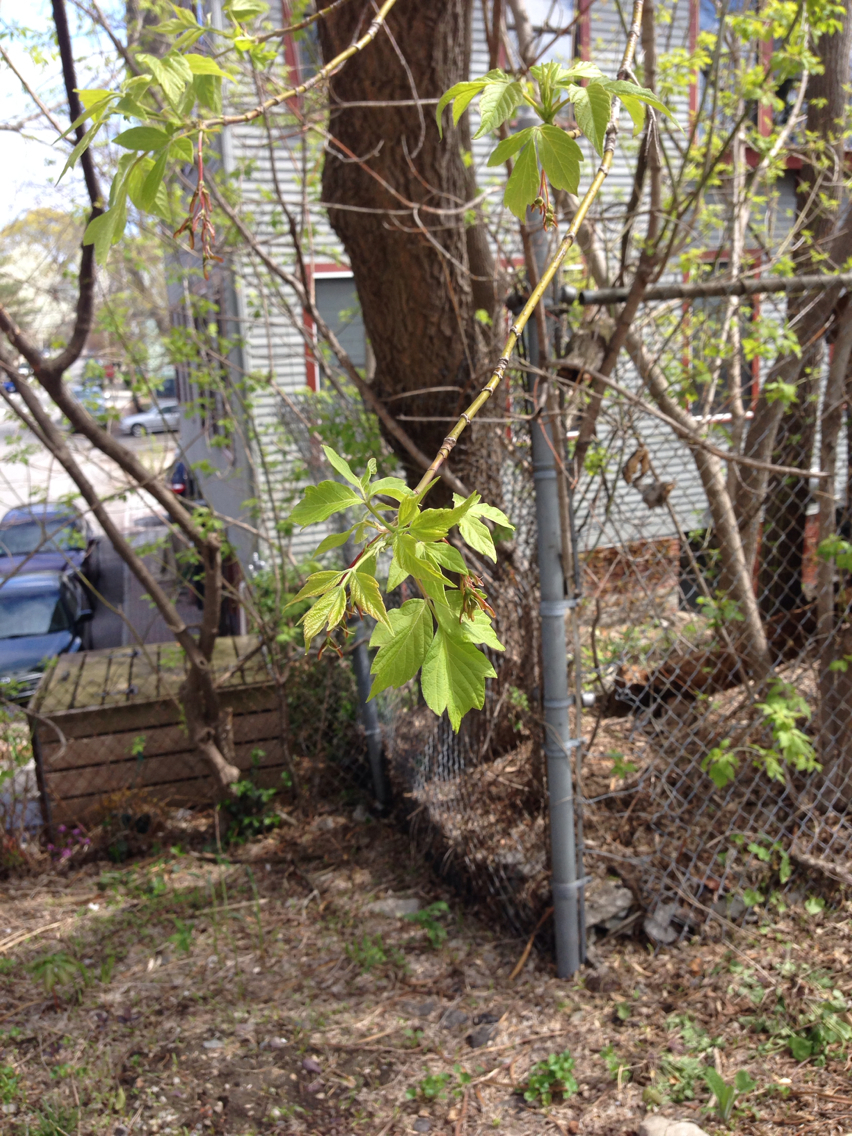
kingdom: Plantae
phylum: Tracheophyta
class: Magnoliopsida
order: Sapindales
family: Sapindaceae
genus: Acer
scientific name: Acer negundo
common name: Ashleaf maple
